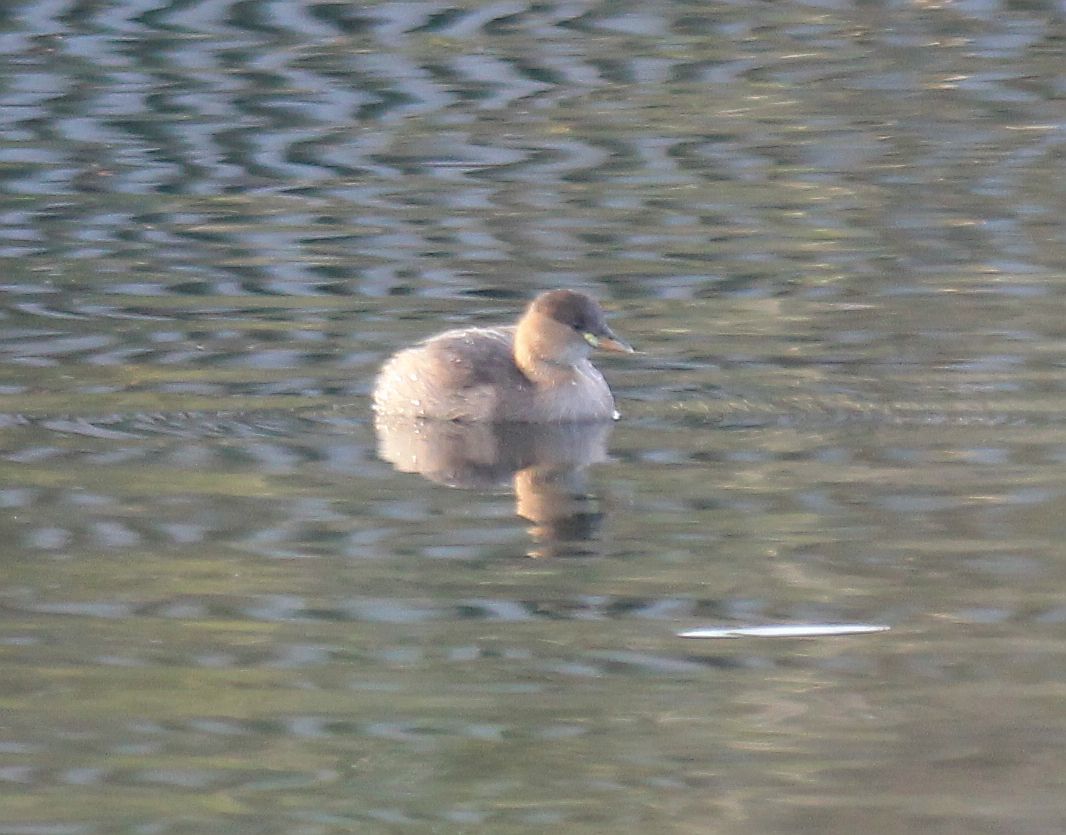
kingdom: Animalia
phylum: Chordata
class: Aves
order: Podicipediformes
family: Podicipedidae
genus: Tachybaptus
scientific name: Tachybaptus ruficollis
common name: Little grebe
